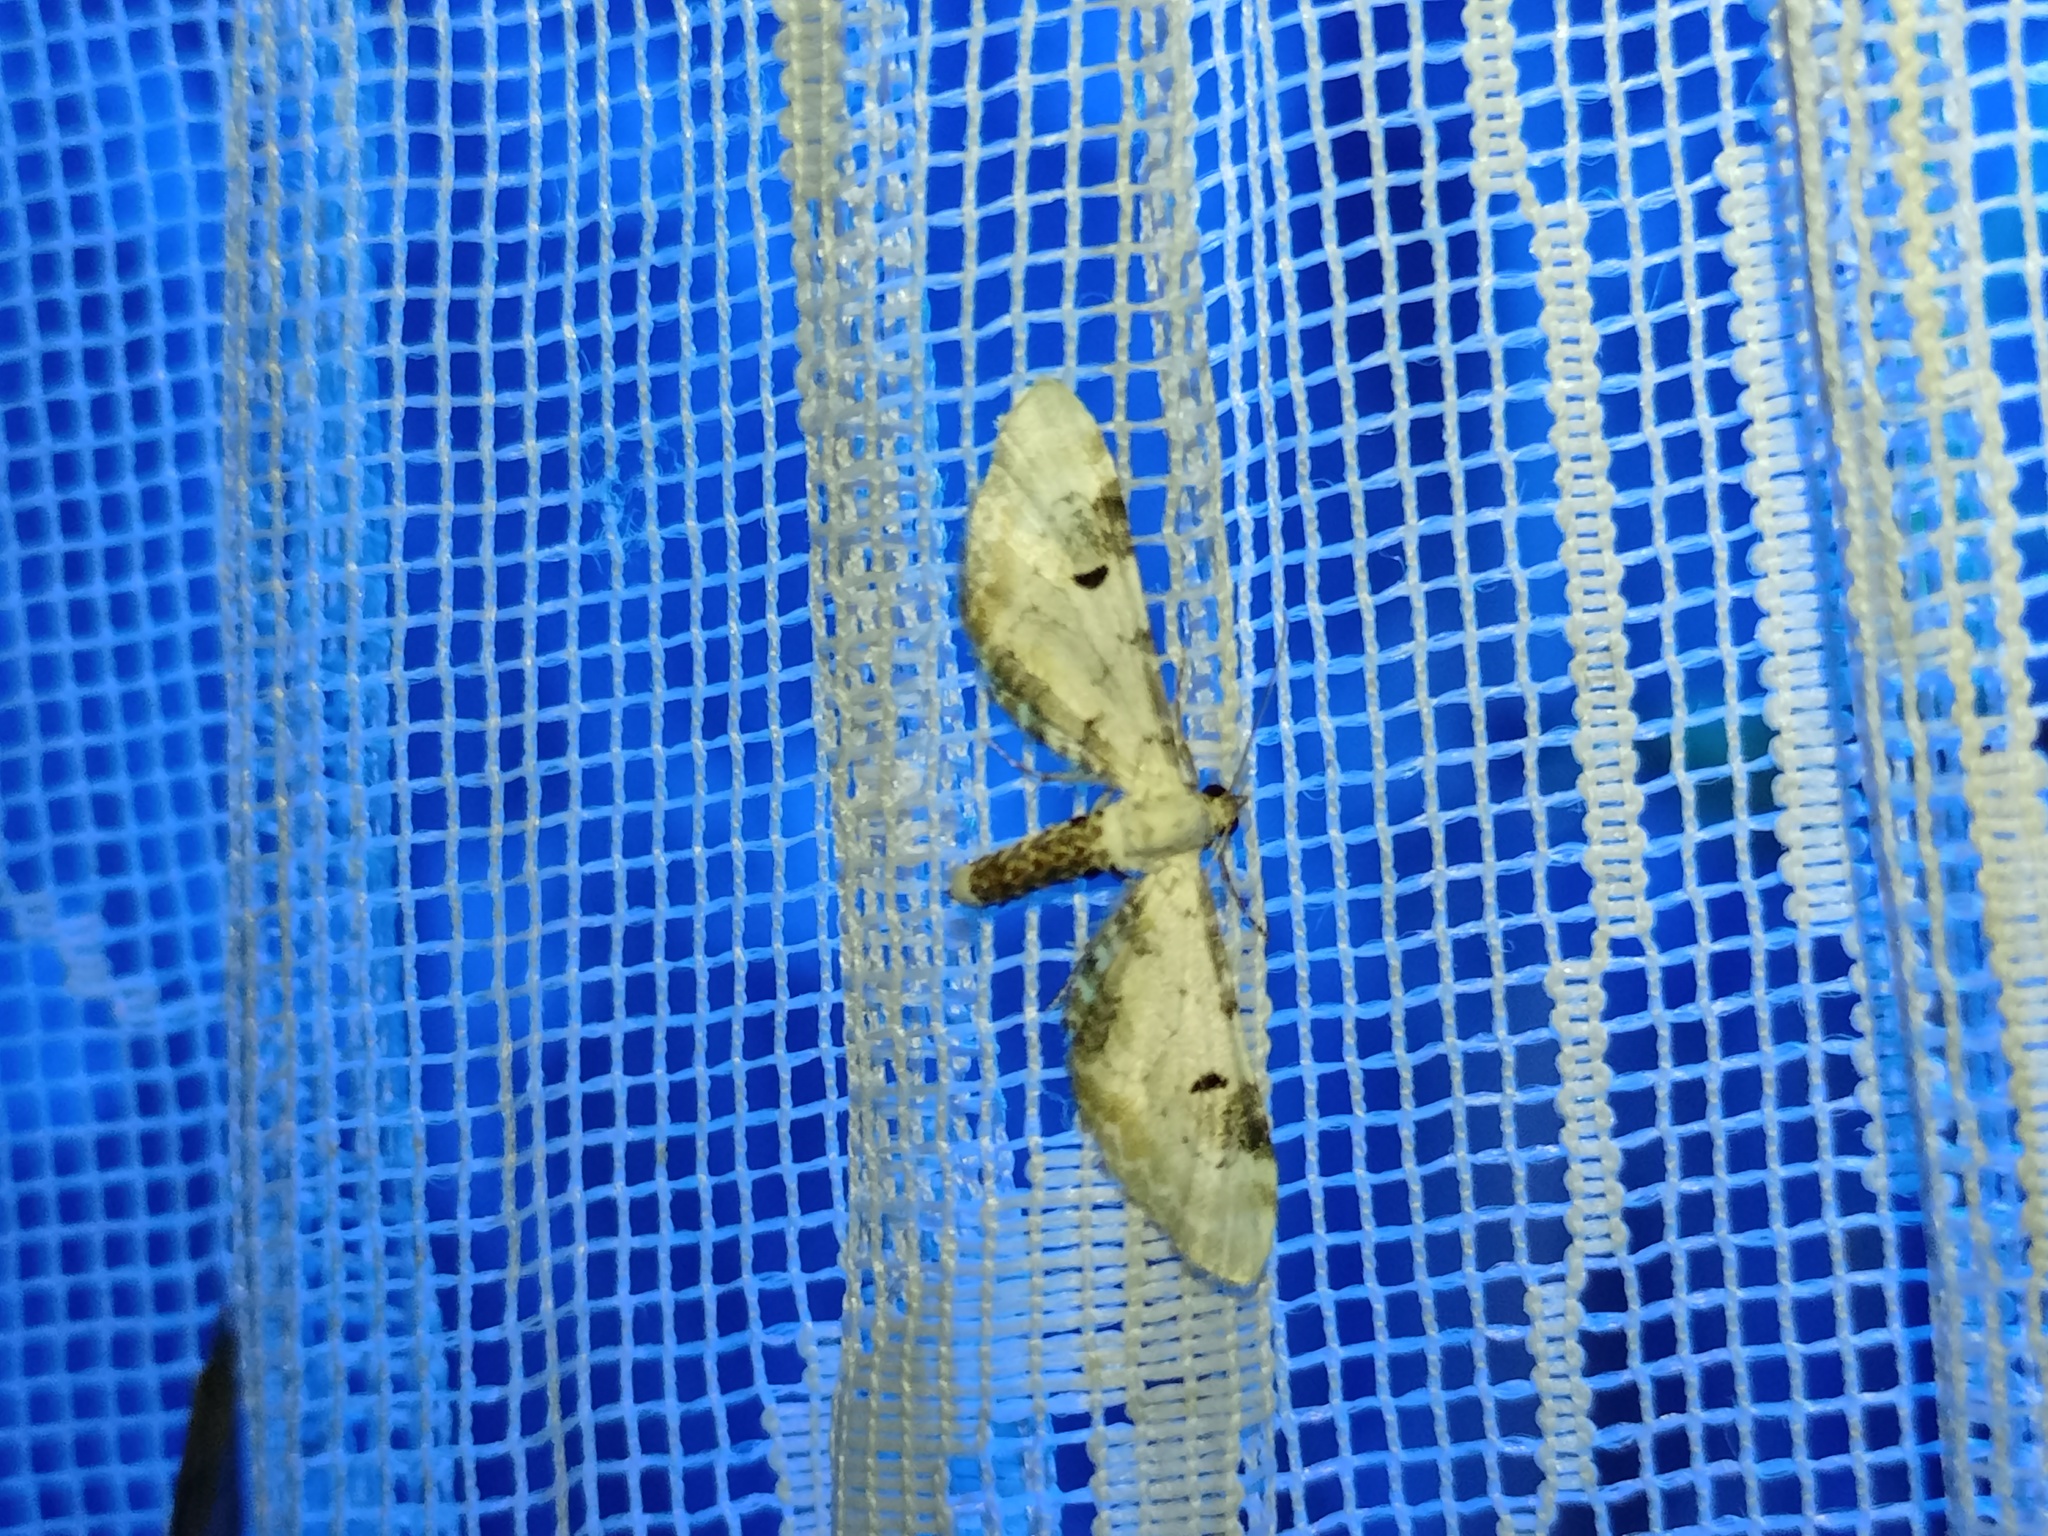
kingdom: Animalia
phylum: Arthropoda
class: Insecta
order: Lepidoptera
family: Geometridae
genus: Eupithecia
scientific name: Eupithecia centaureata
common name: Lime-speck pug
